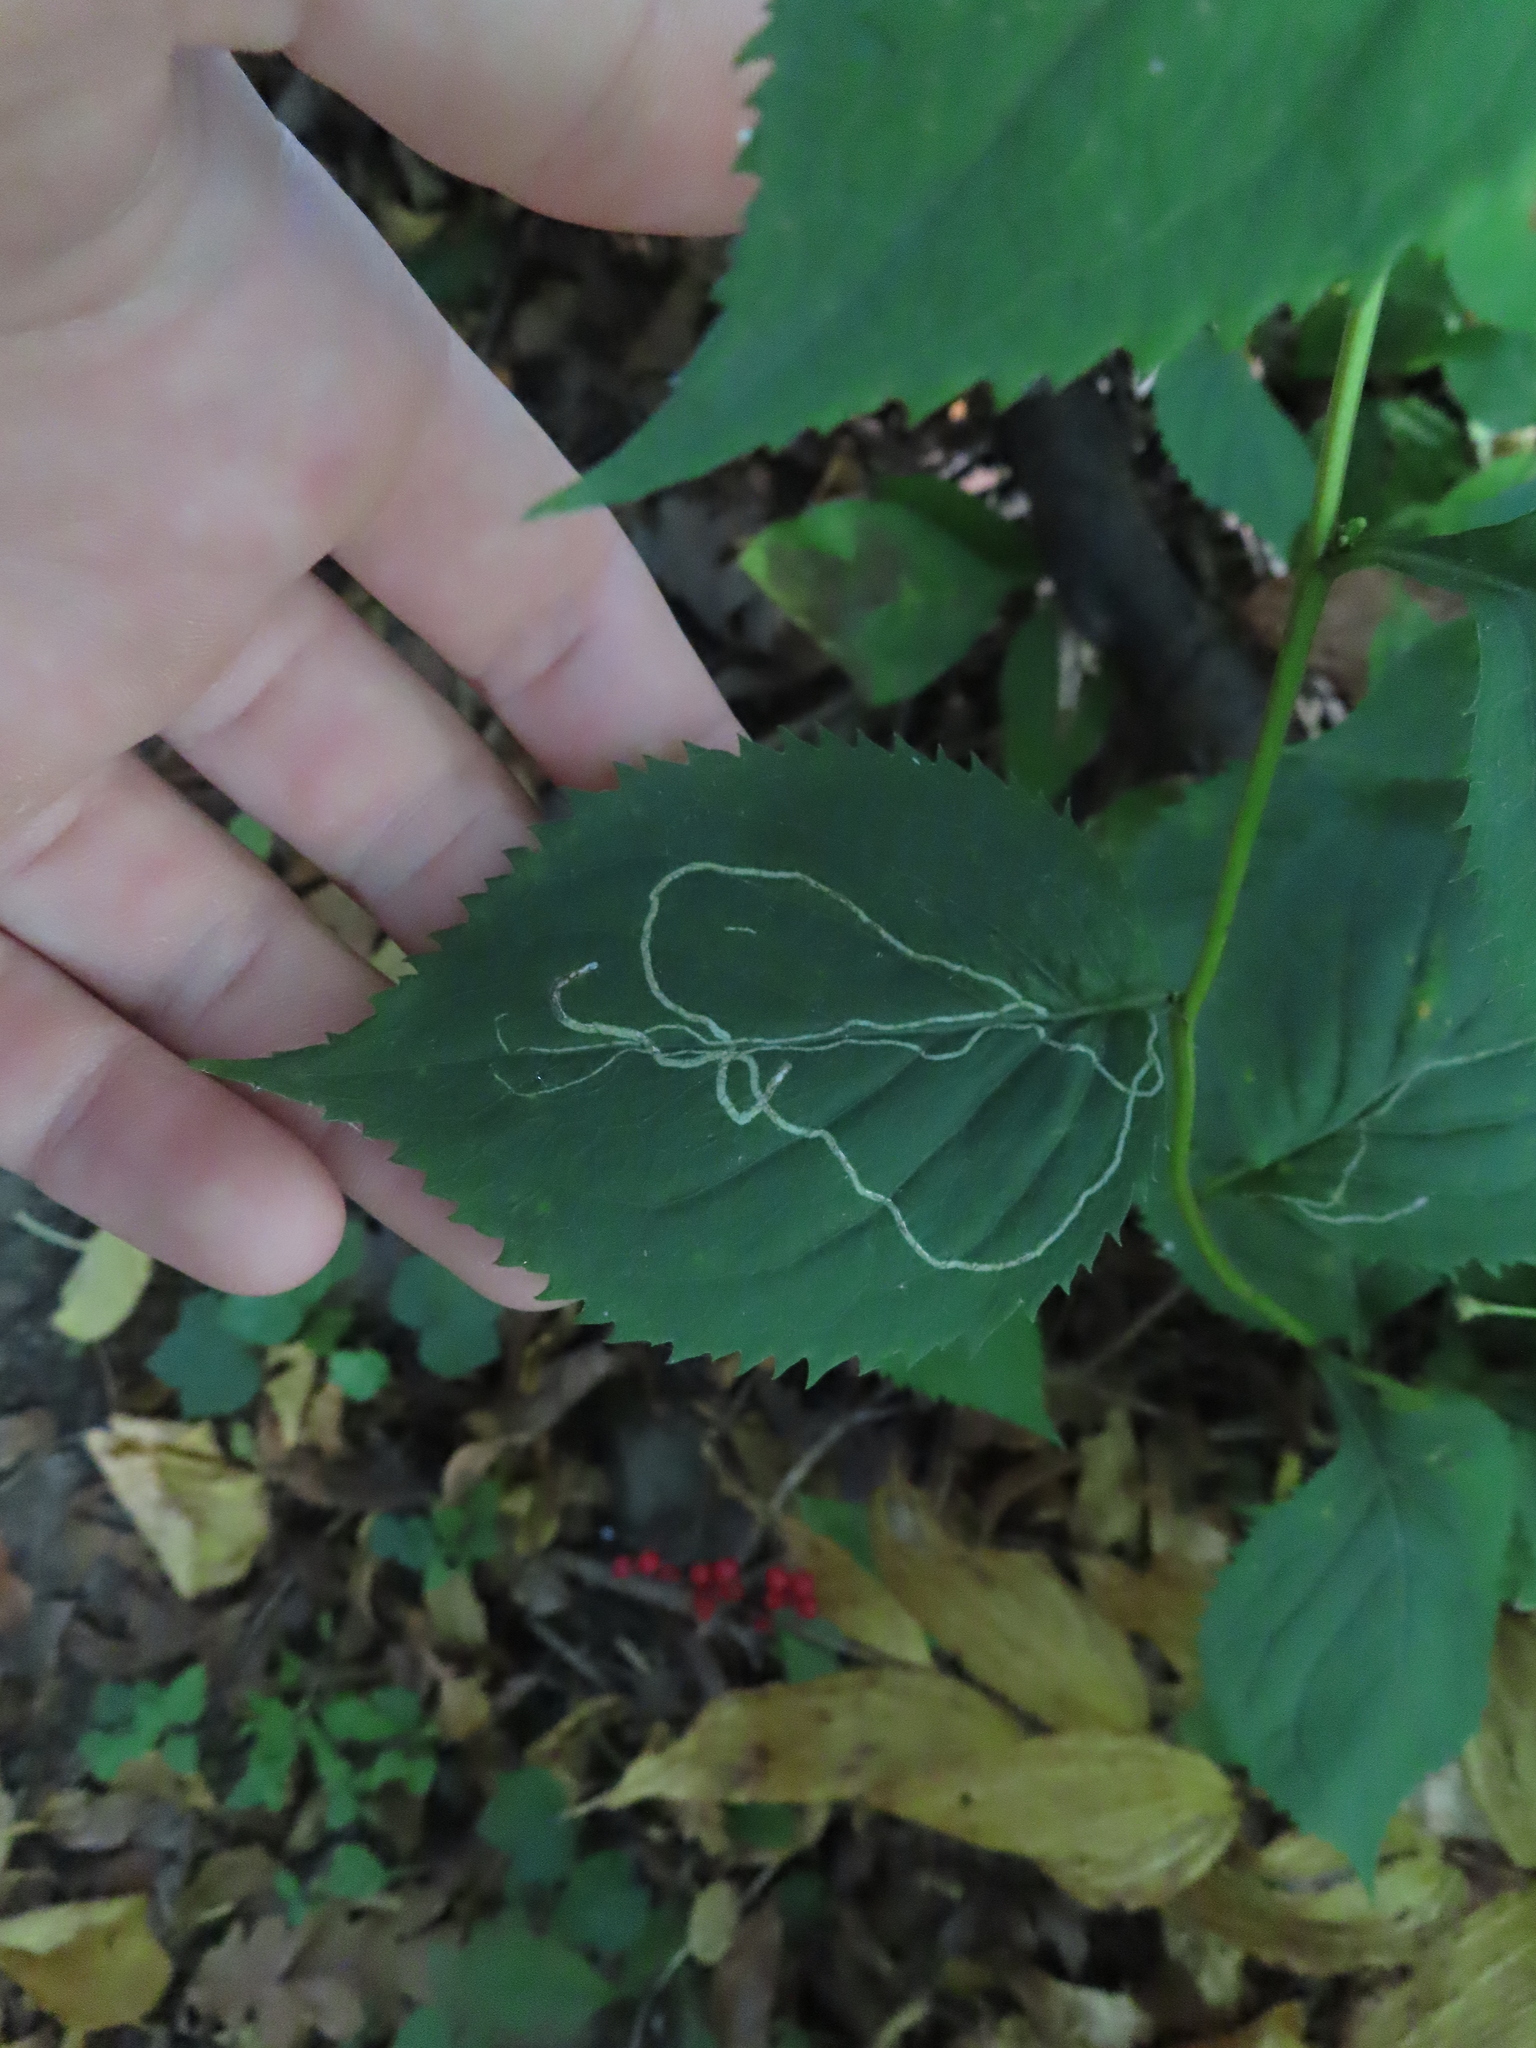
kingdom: Animalia
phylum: Arthropoda
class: Insecta
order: Diptera
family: Agromyzidae
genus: Ophiomyia
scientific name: Ophiomyia maura
